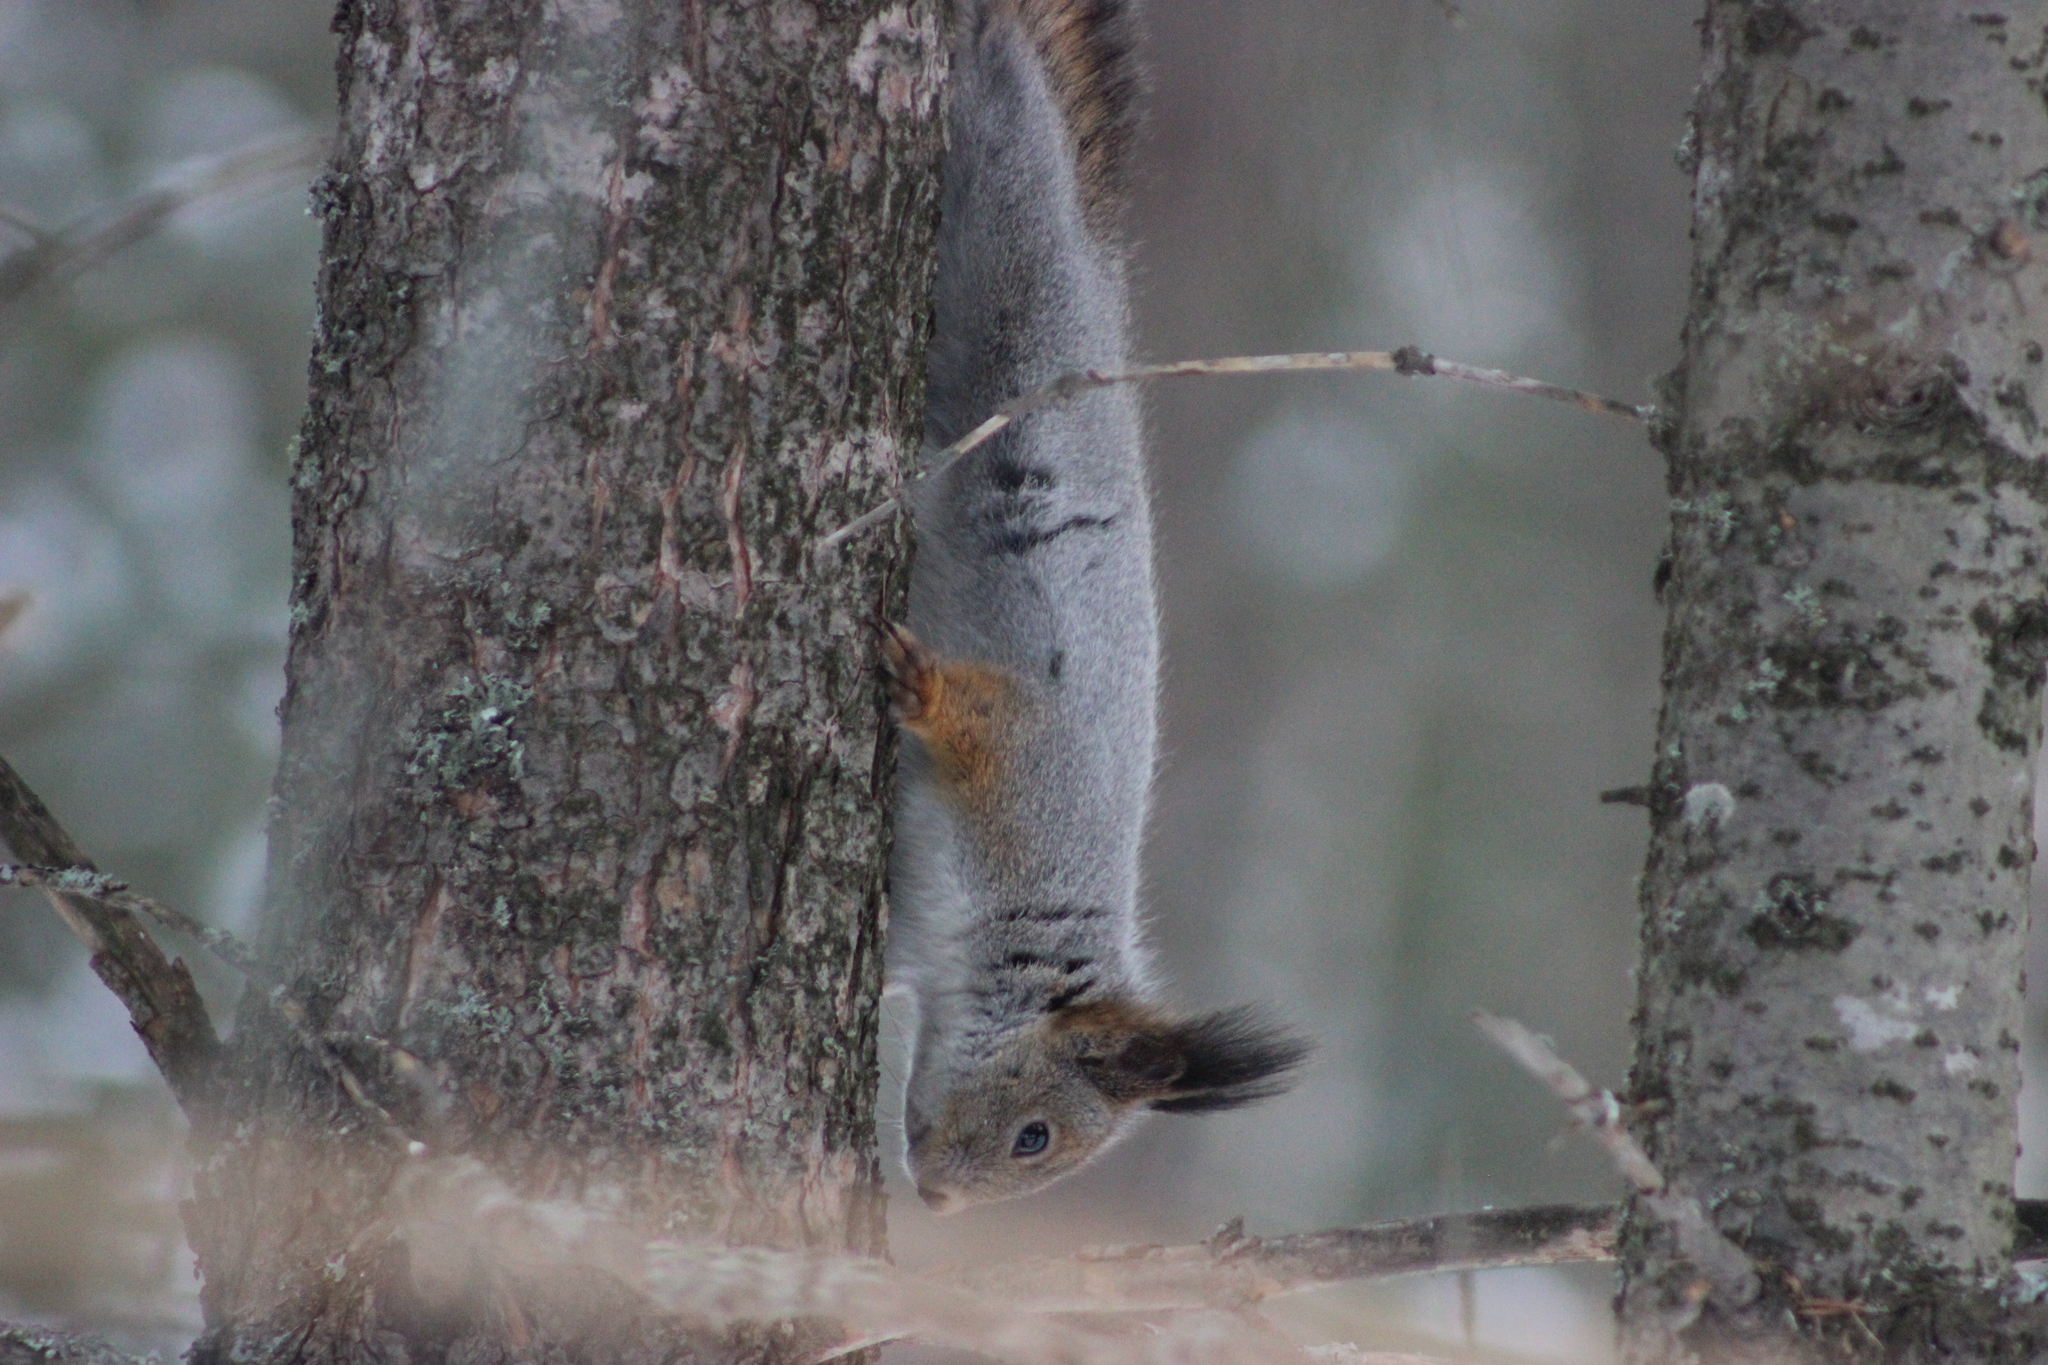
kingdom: Animalia
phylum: Chordata
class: Mammalia
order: Rodentia
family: Sciuridae
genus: Sciurus
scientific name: Sciurus vulgaris
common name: Eurasian red squirrel
